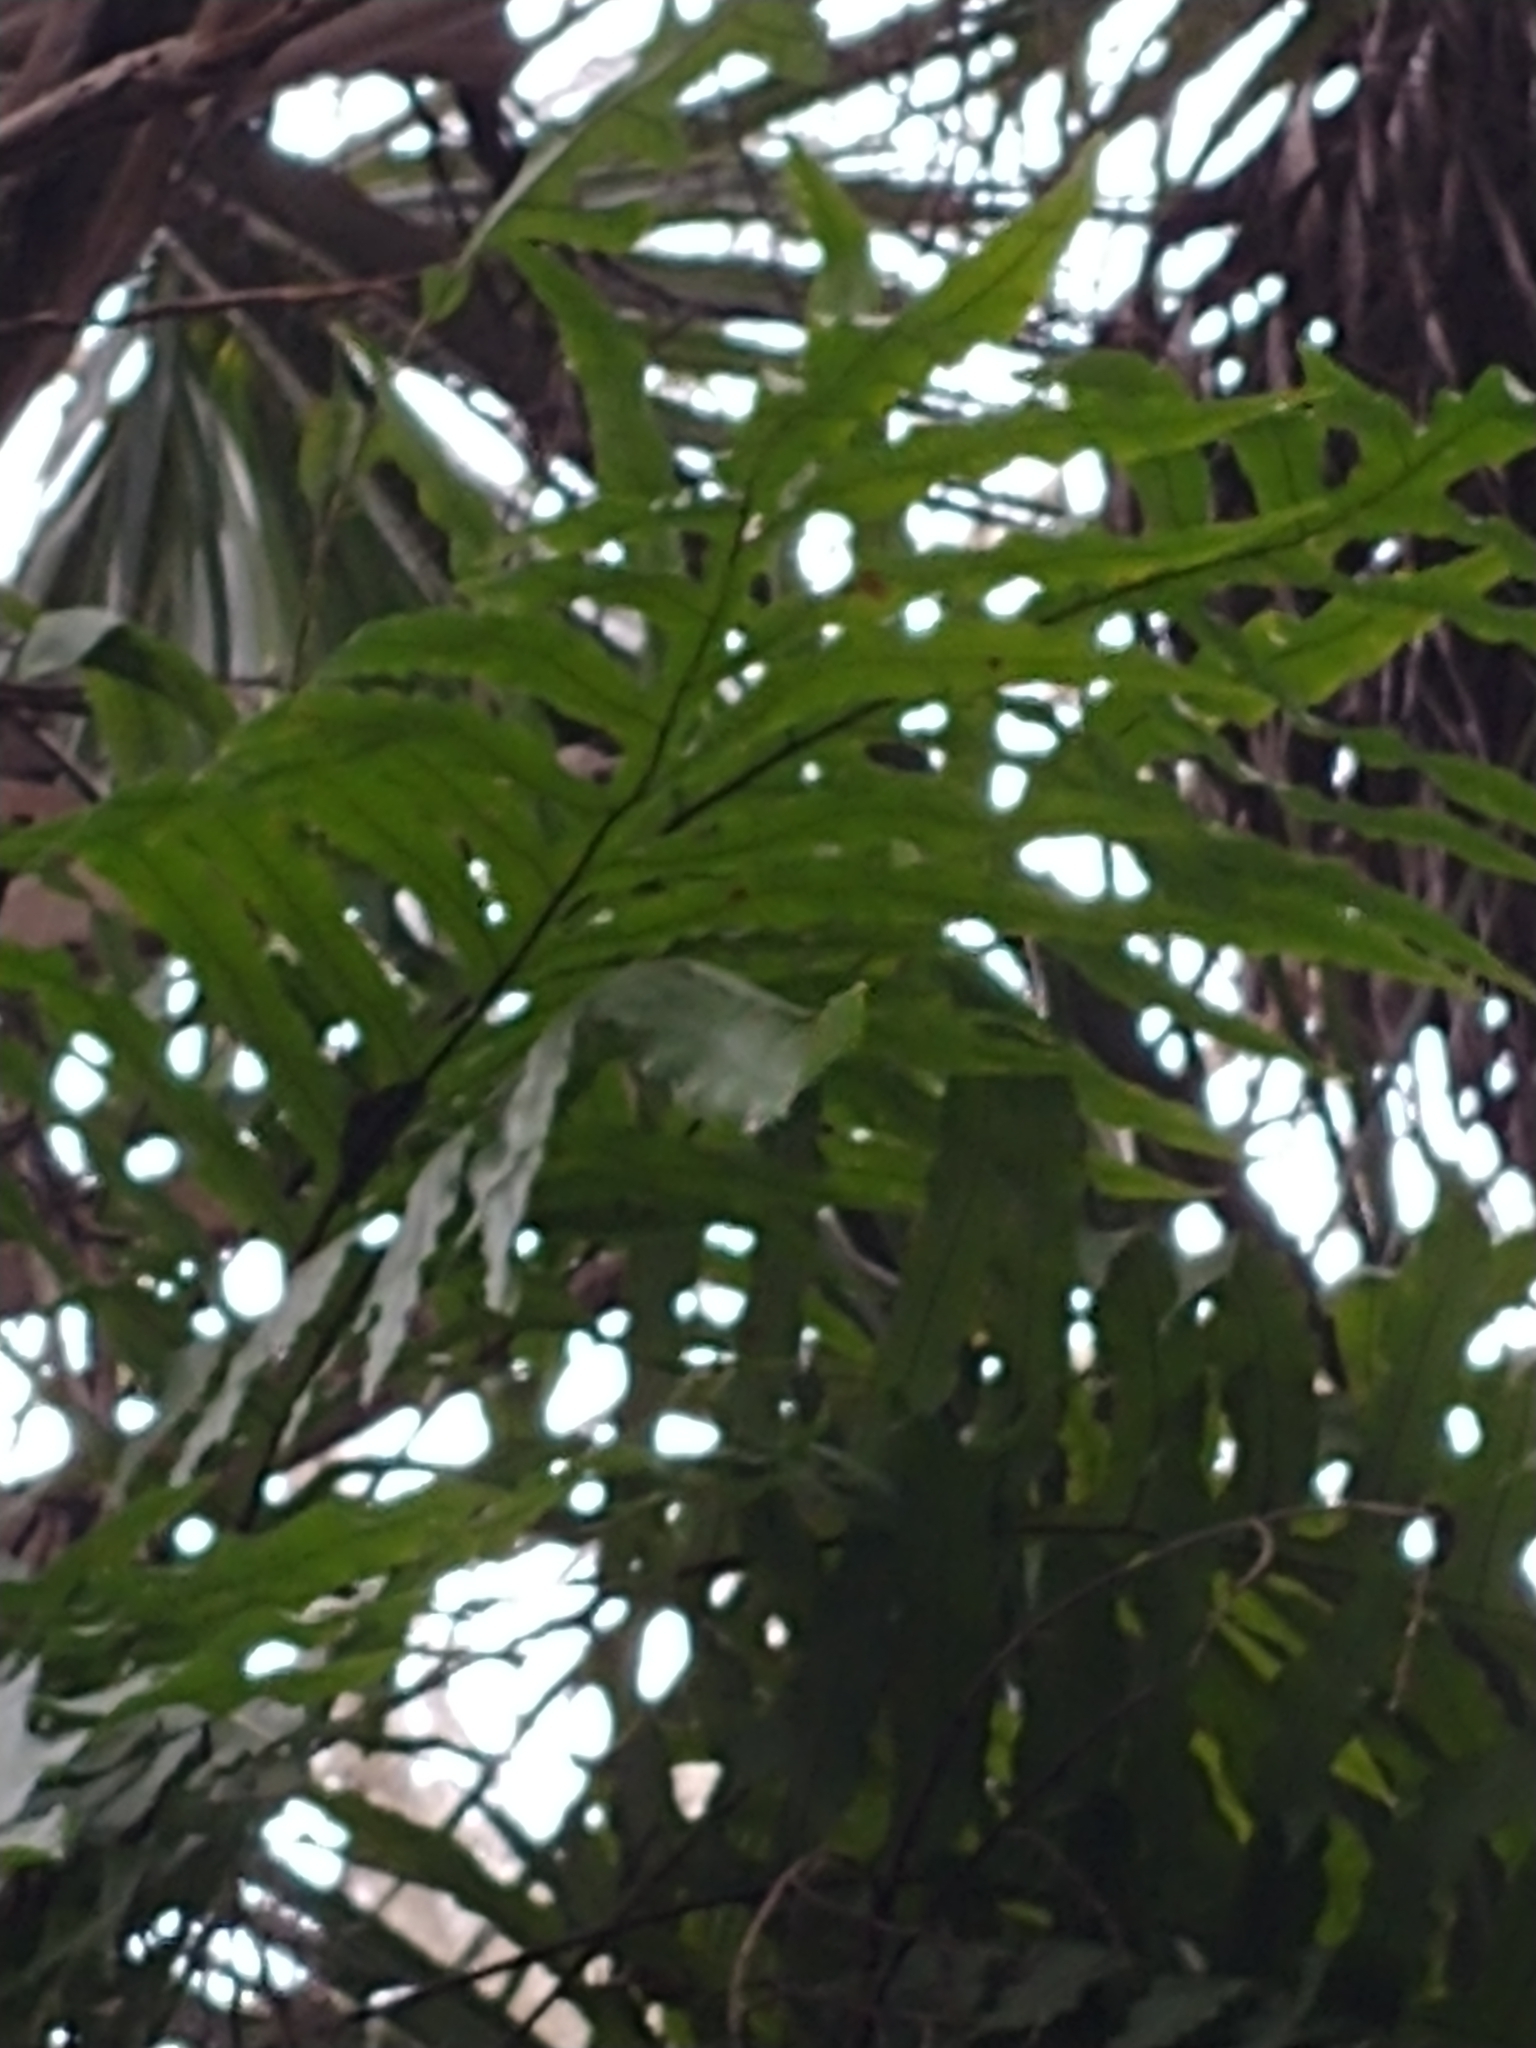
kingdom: Plantae
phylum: Tracheophyta
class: Polypodiopsida
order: Polypodiales
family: Polypodiaceae
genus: Phlebodium
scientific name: Phlebodium aureum
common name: Gold-foot fern
